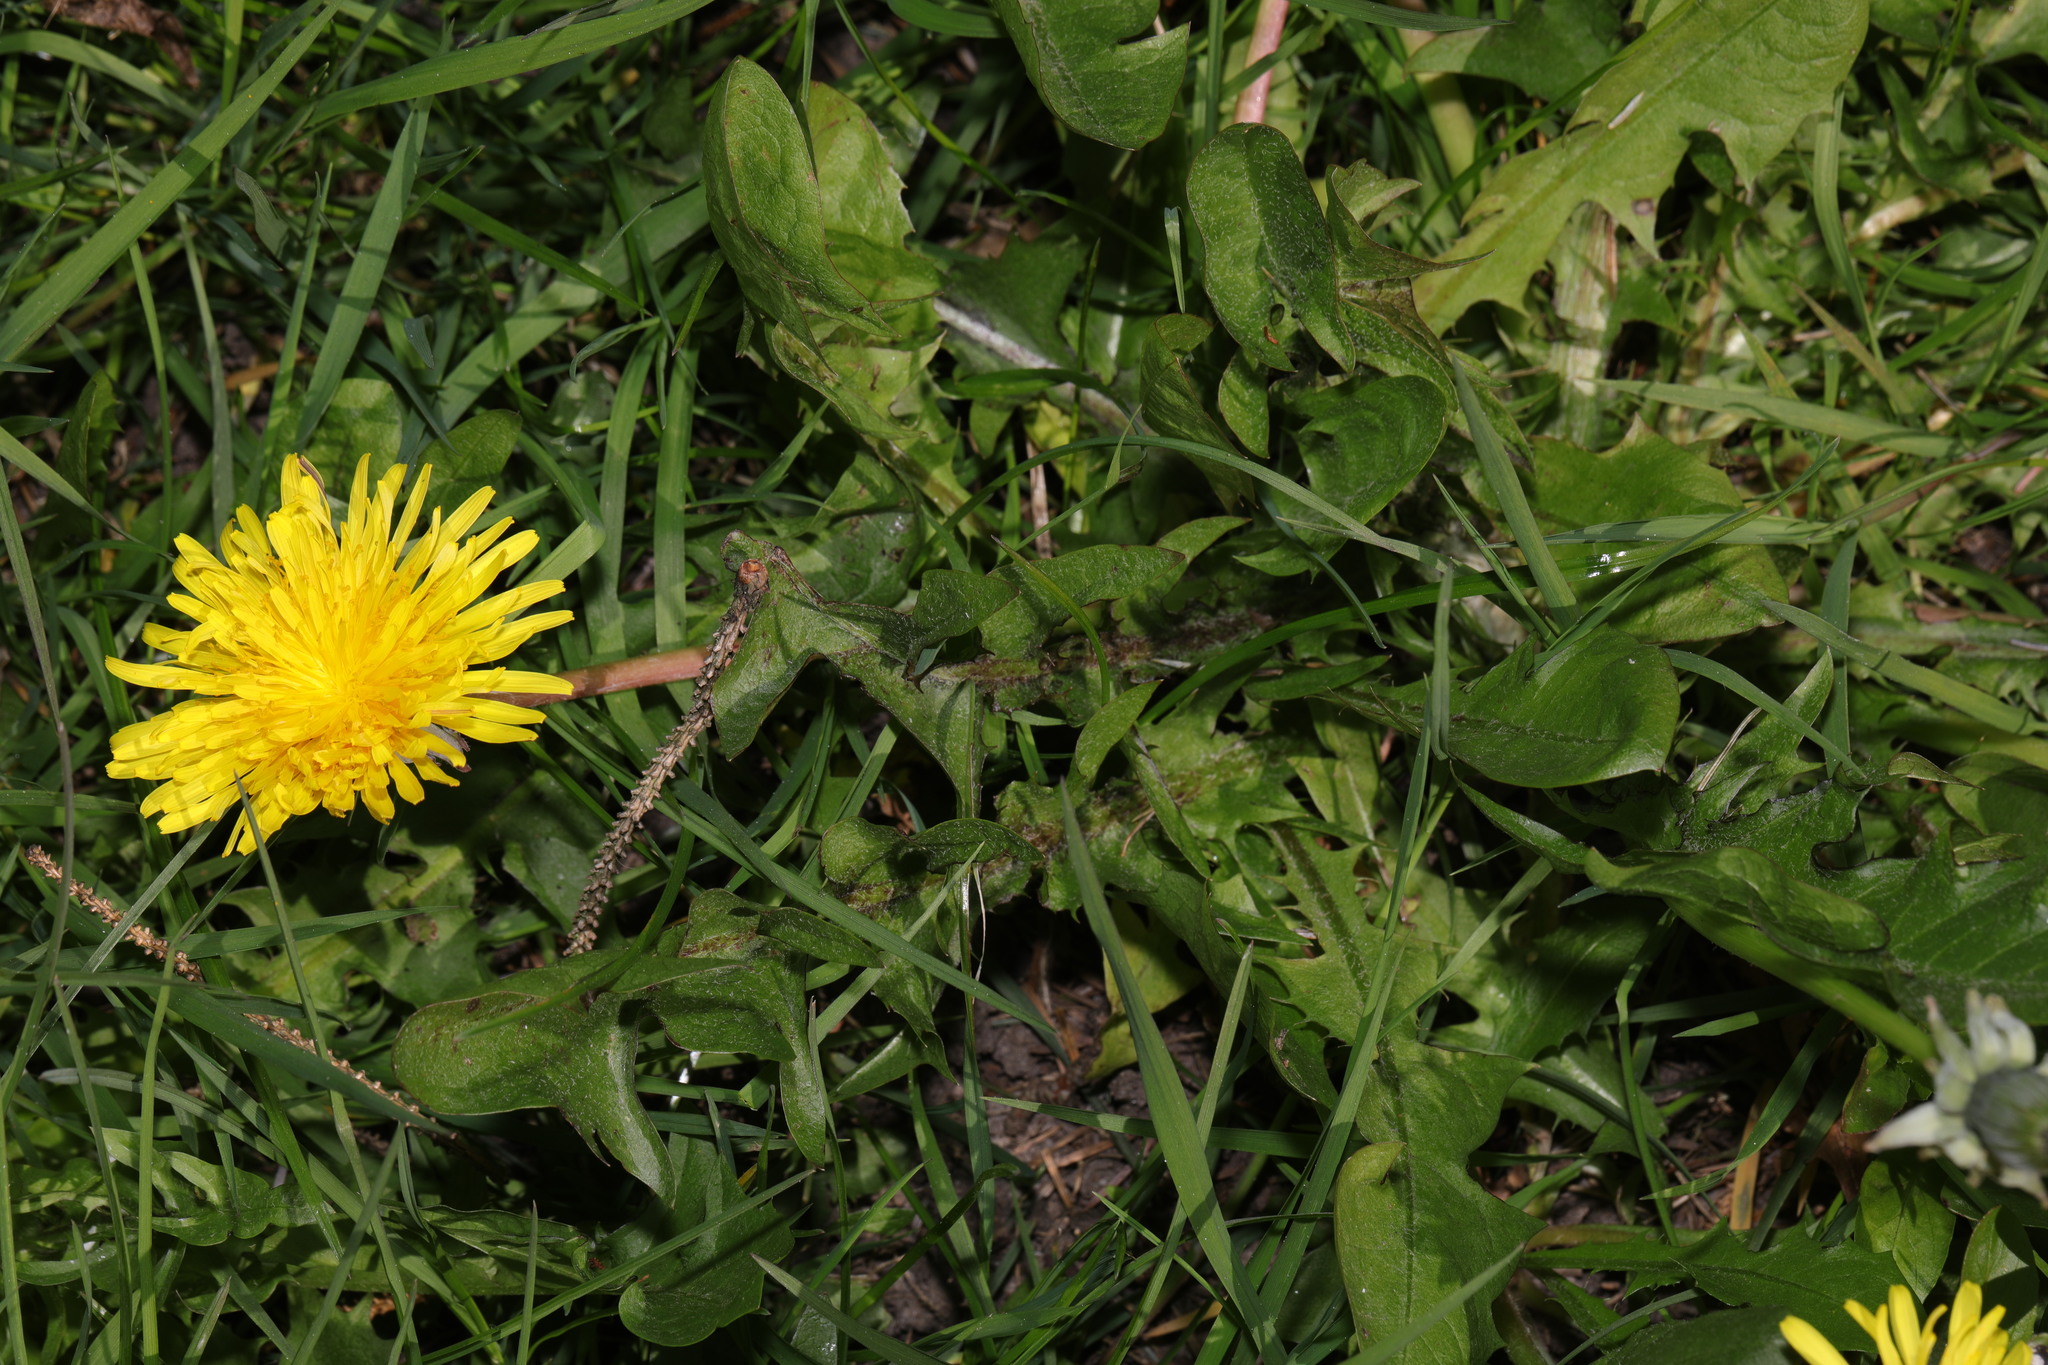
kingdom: Plantae
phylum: Tracheophyta
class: Magnoliopsida
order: Asterales
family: Asteraceae
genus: Taraxacum
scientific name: Taraxacum officinale
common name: Common dandelion
